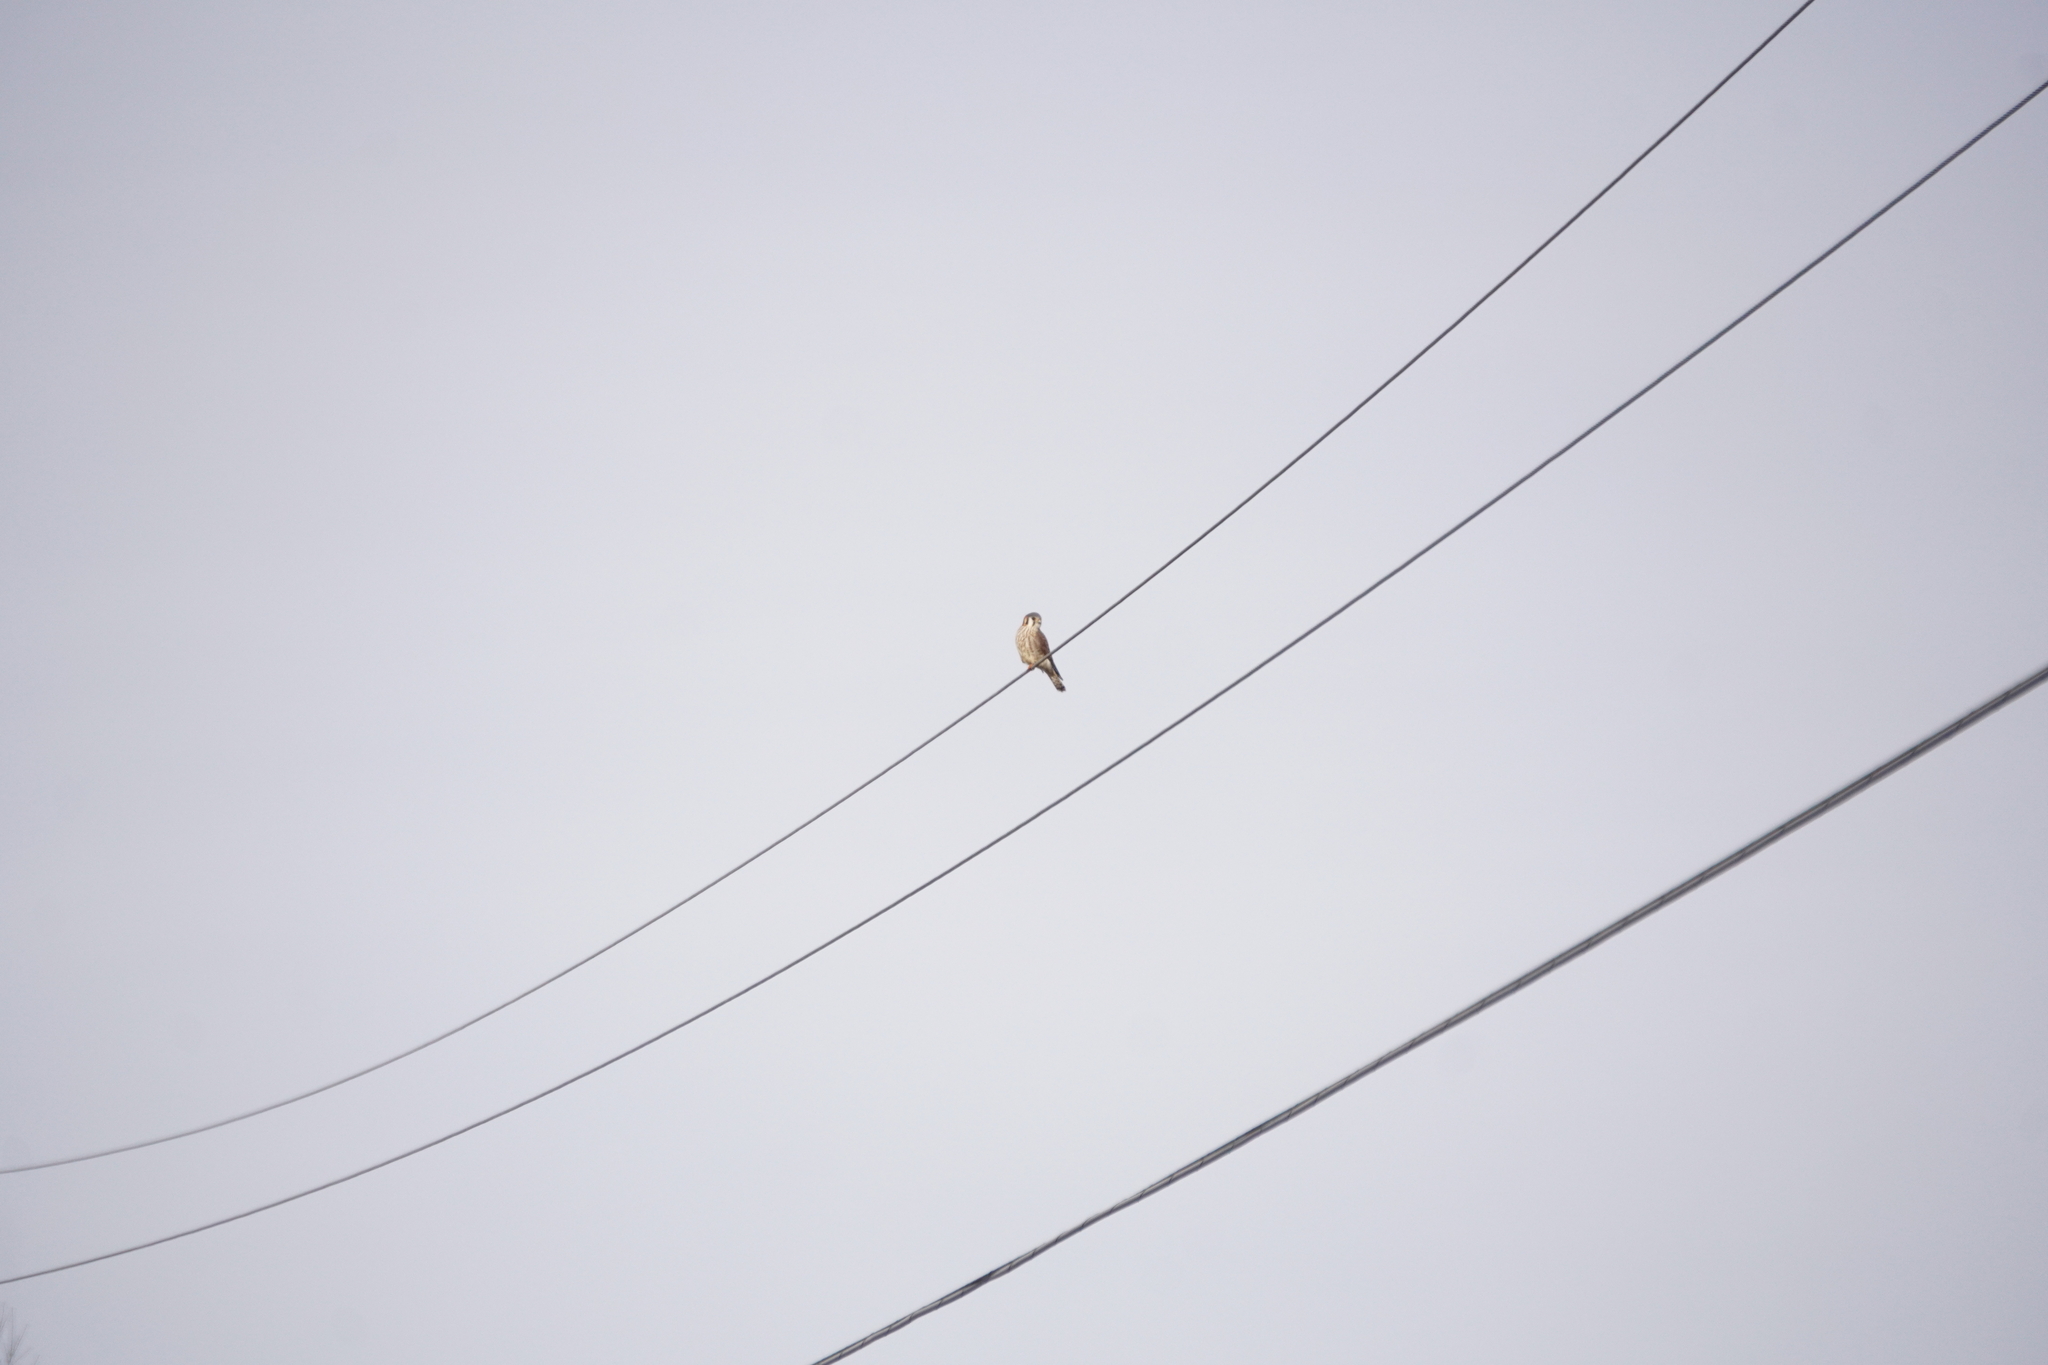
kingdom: Animalia
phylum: Chordata
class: Aves
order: Falconiformes
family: Falconidae
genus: Falco
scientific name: Falco sparverius
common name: American kestrel
